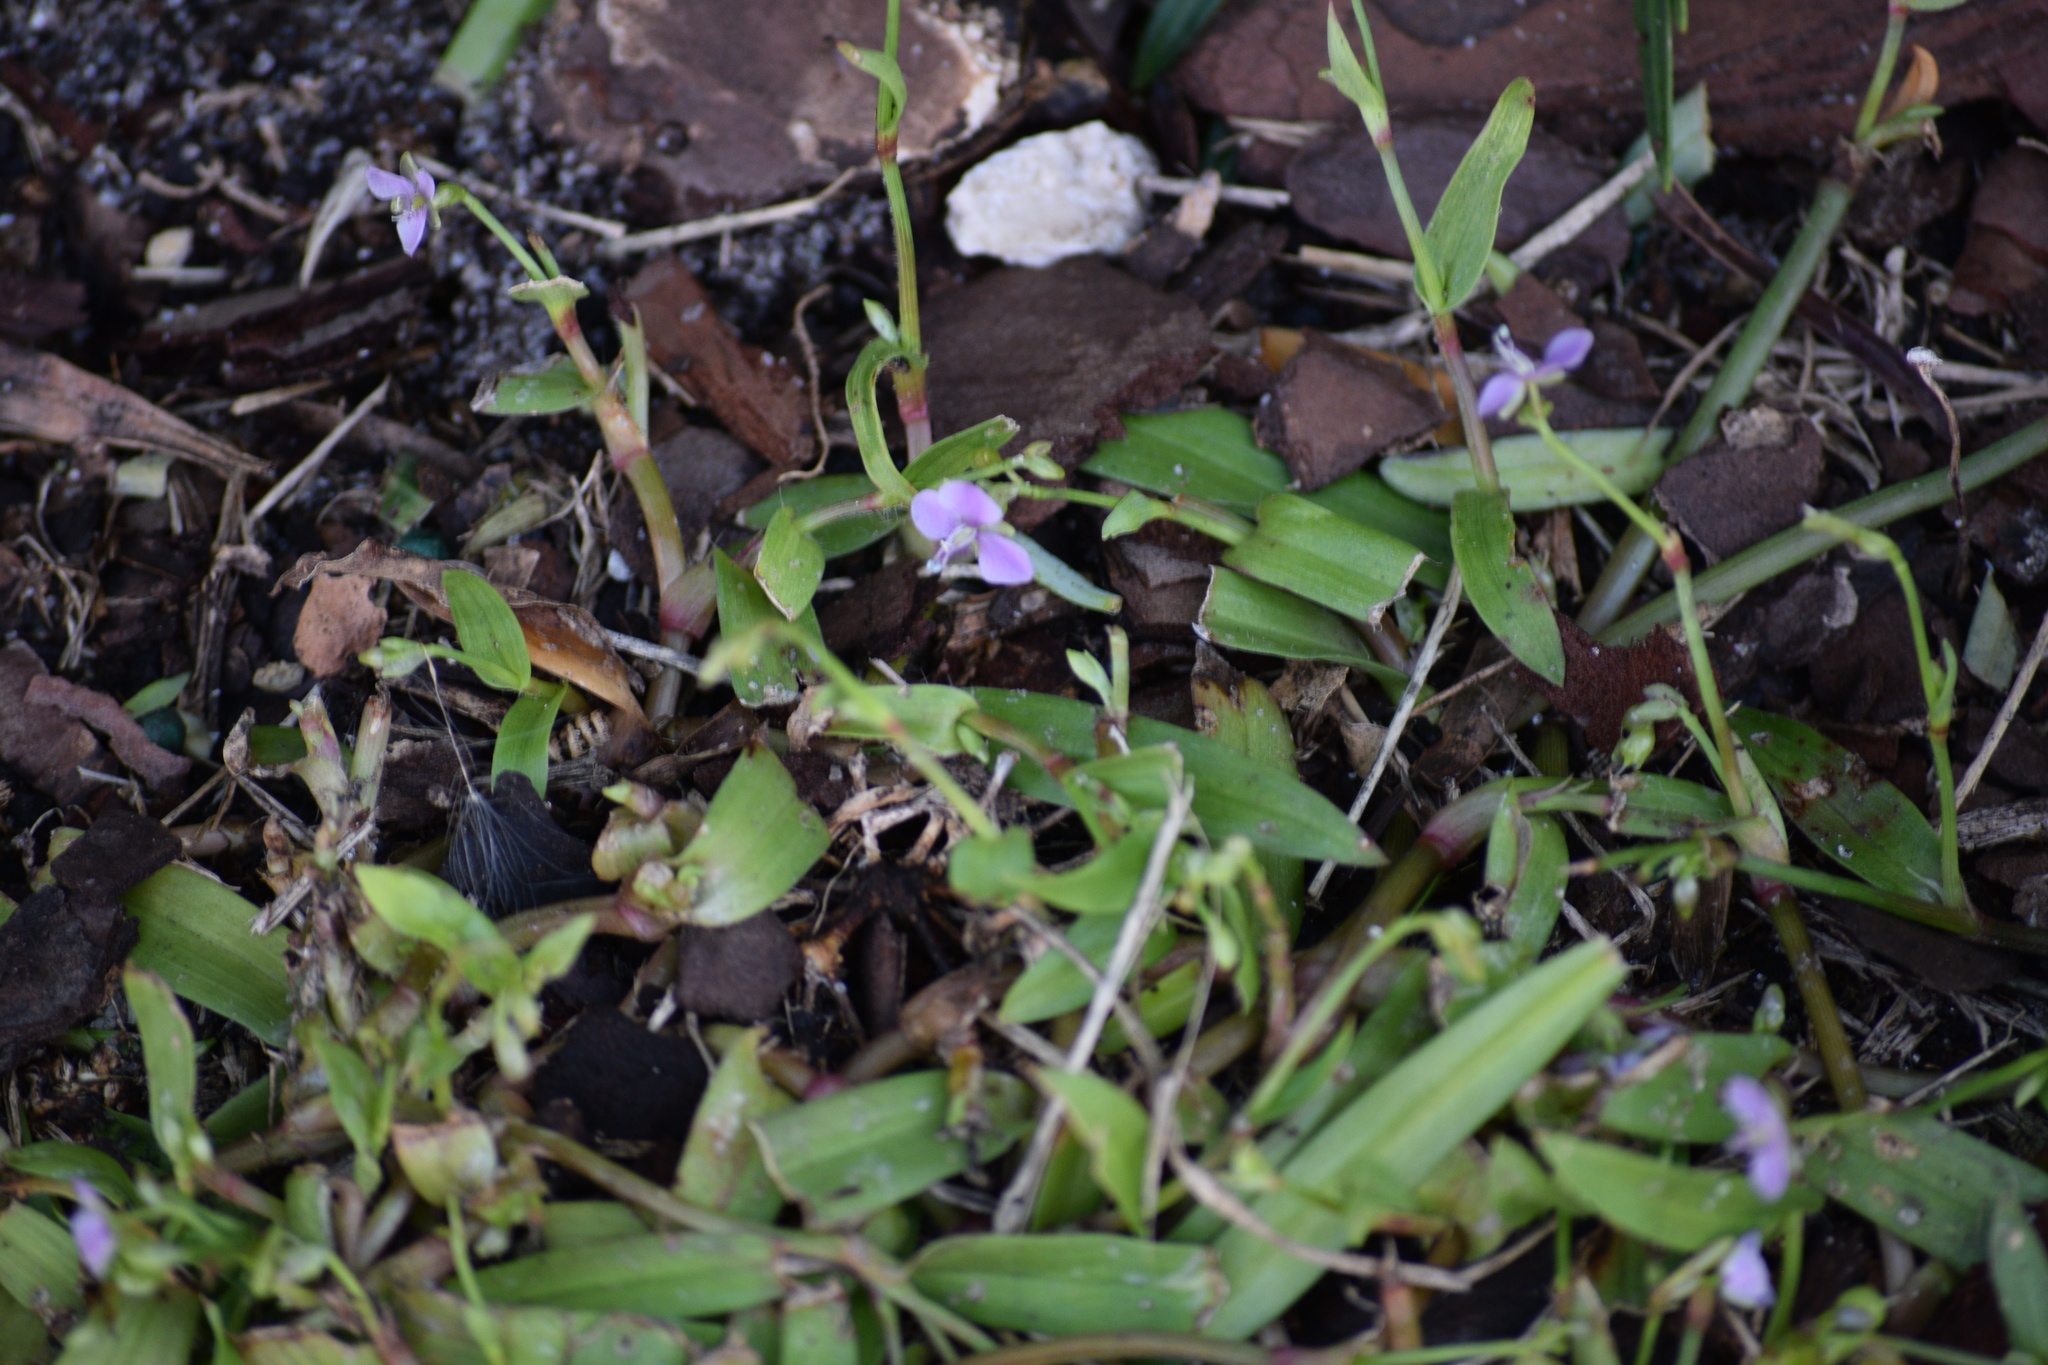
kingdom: Plantae
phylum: Tracheophyta
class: Liliopsida
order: Commelinales
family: Commelinaceae
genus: Murdannia
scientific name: Murdannia nudiflora
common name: Nakedstem dewflower
